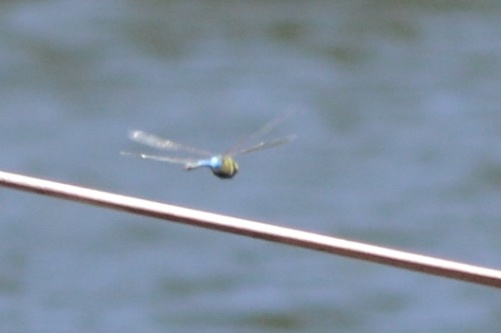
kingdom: Animalia
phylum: Arthropoda
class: Insecta
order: Odonata
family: Aeshnidae
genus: Anax
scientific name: Anax junius
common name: Common green darner
